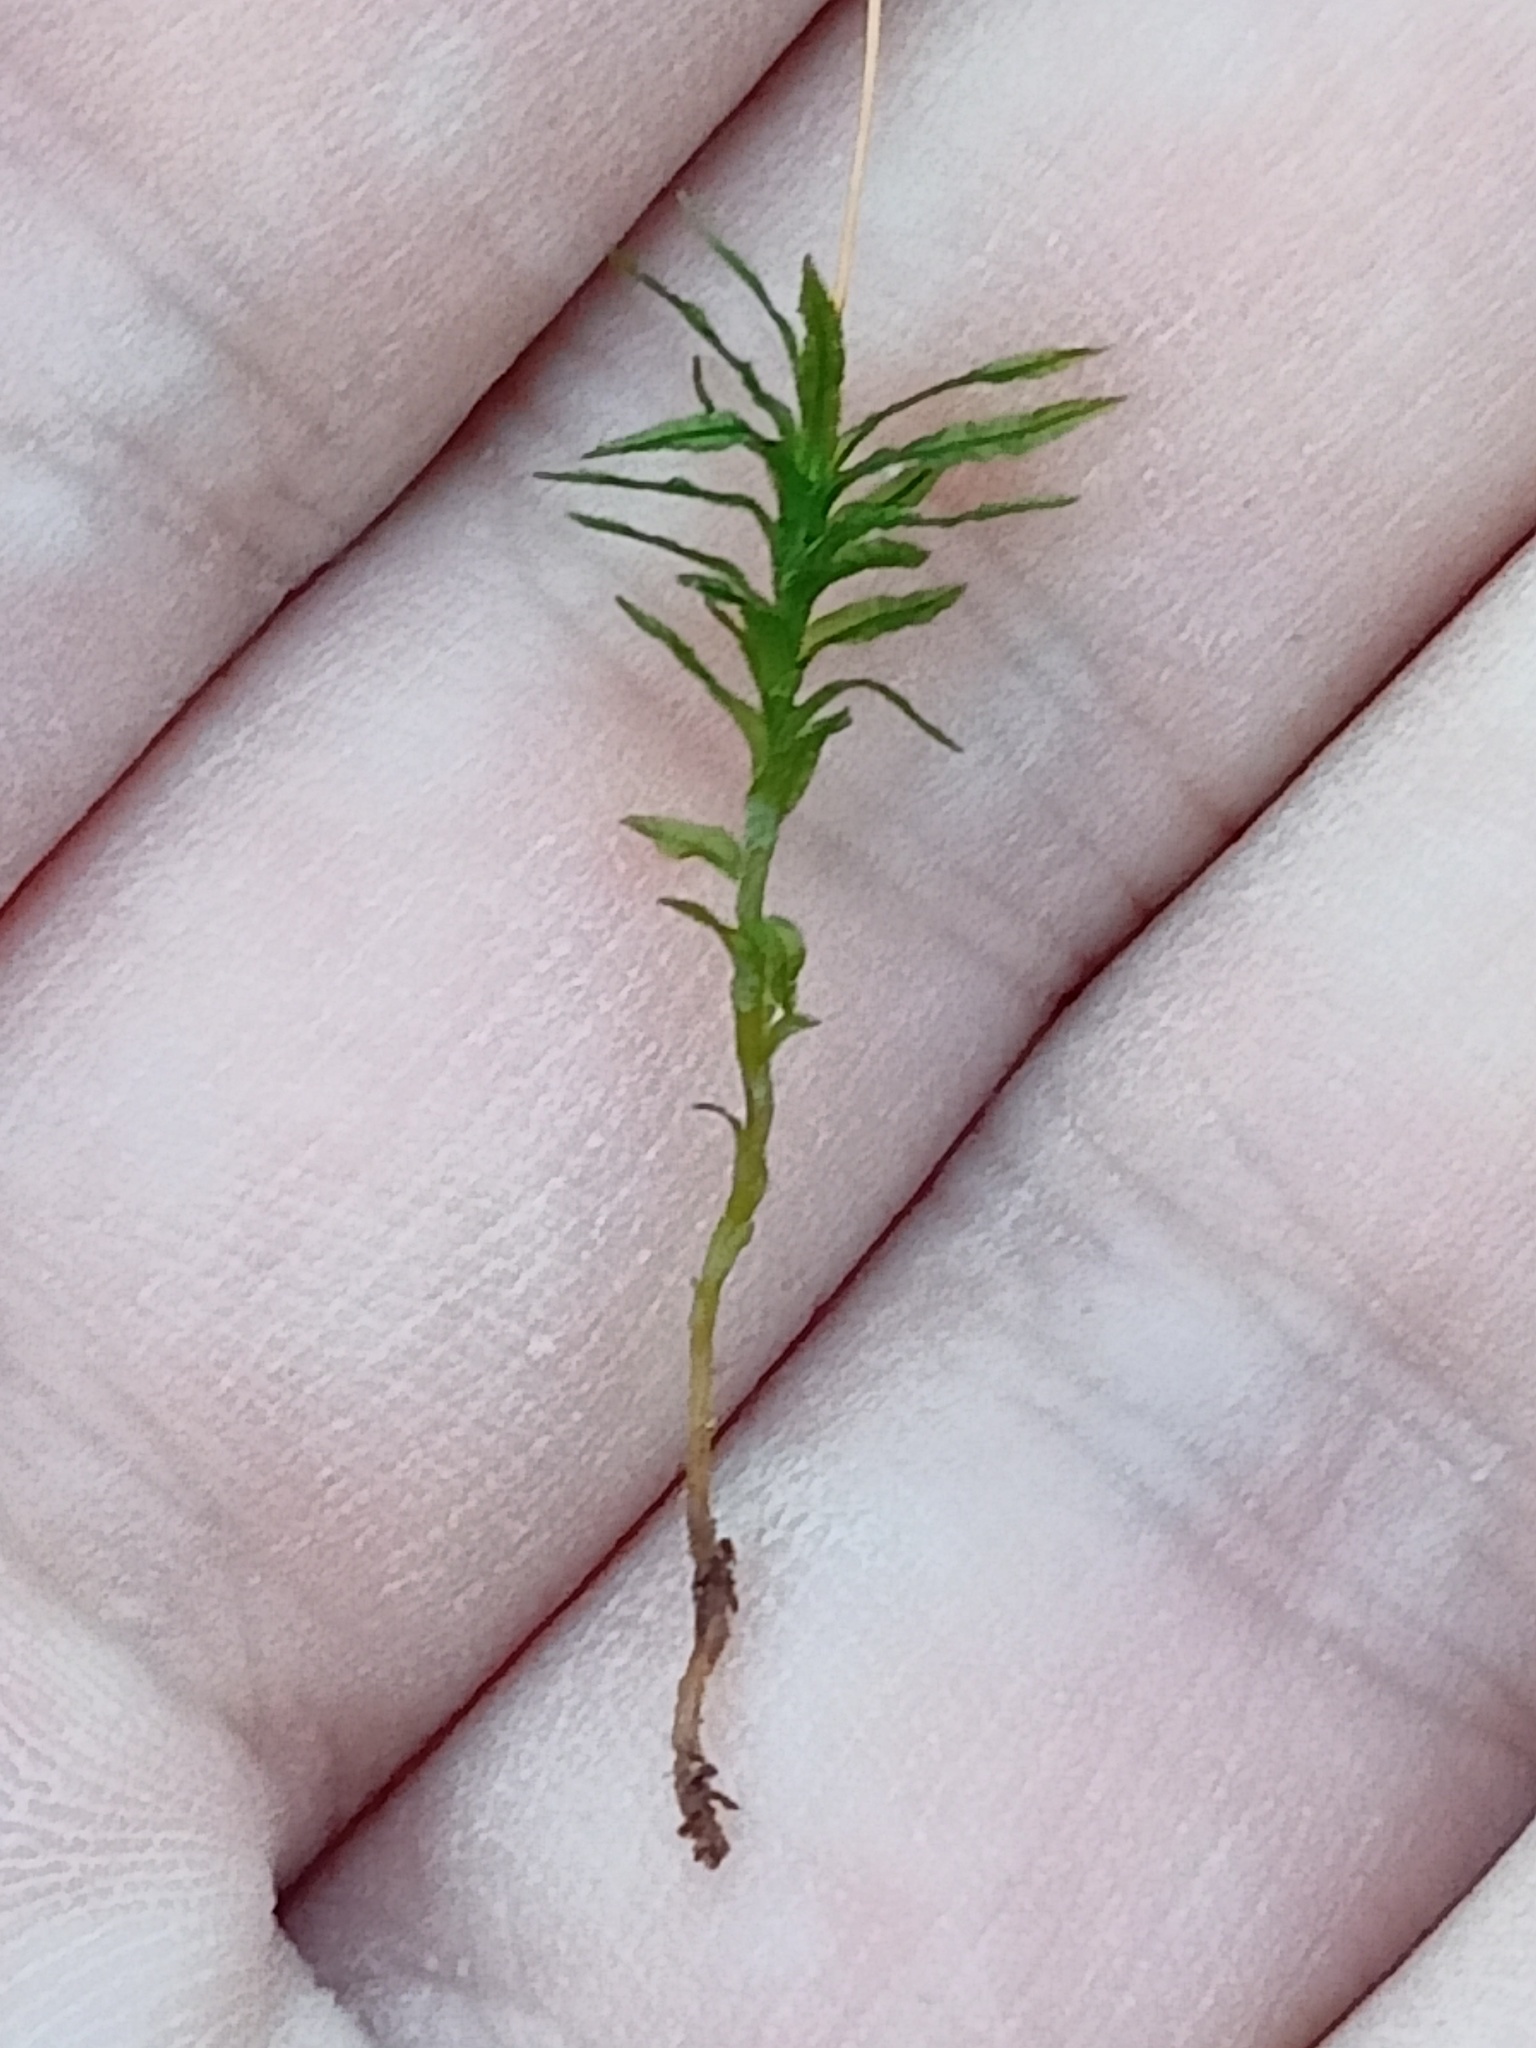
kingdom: Plantae
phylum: Bryophyta
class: Polytrichopsida
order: Polytrichales
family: Polytrichaceae
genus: Atrichum
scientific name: Atrichum undulatum
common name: Common smoothcap
